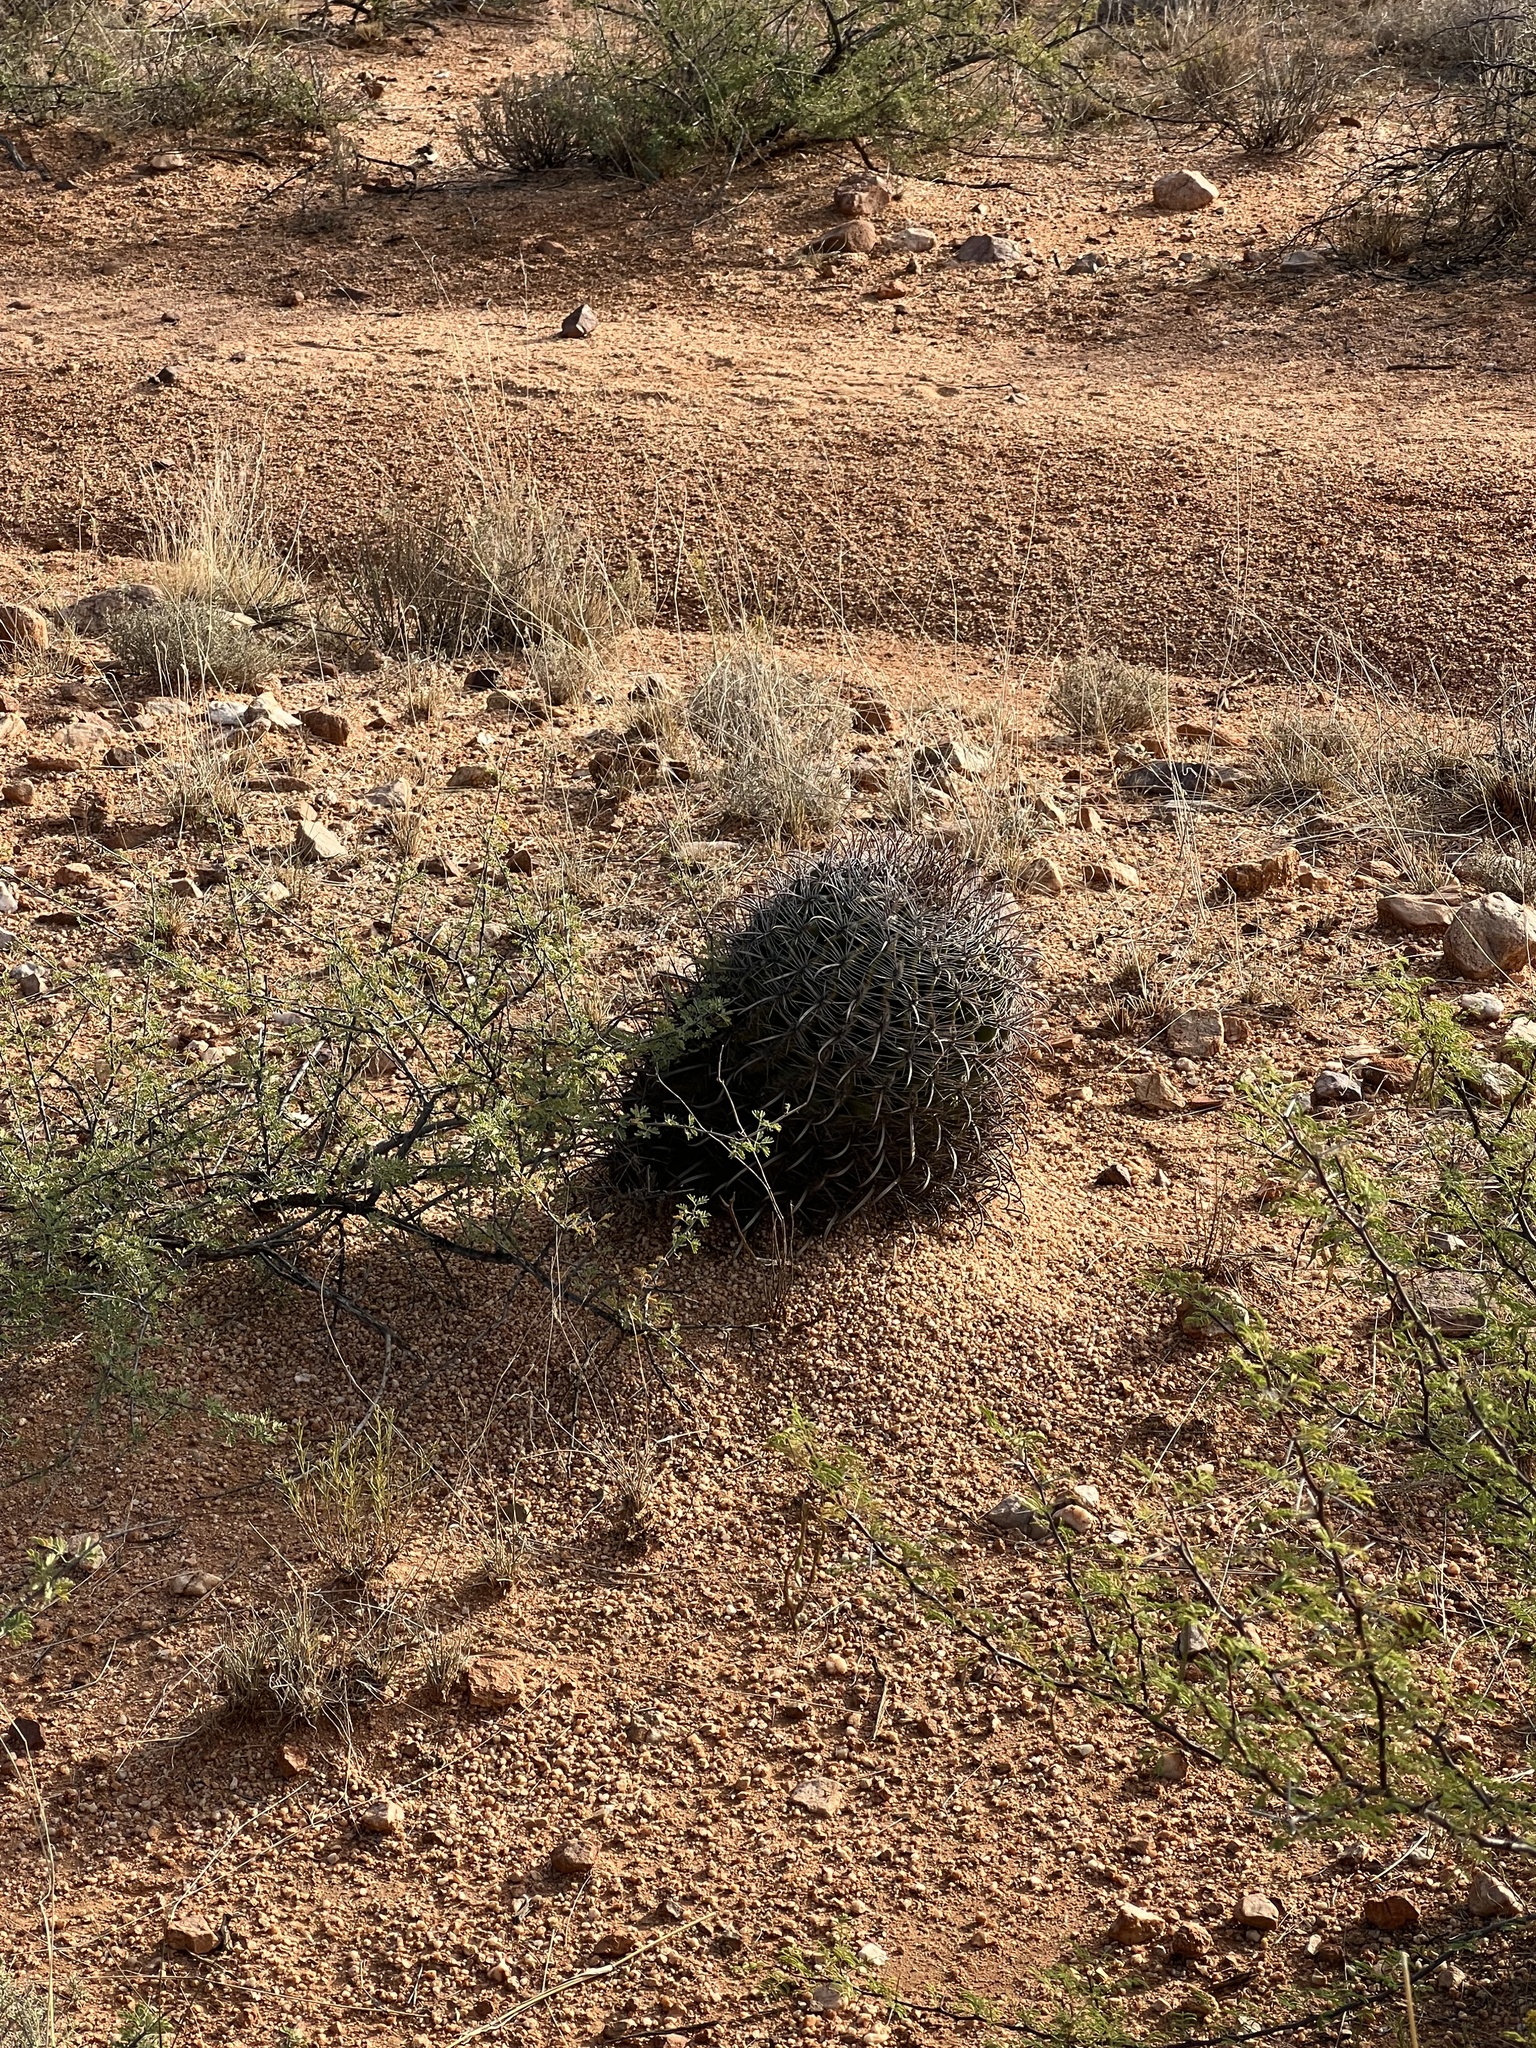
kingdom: Plantae
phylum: Tracheophyta
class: Magnoliopsida
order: Caryophyllales
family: Cactaceae
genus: Ferocactus
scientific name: Ferocactus wislizeni
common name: Candy barrel cactus
